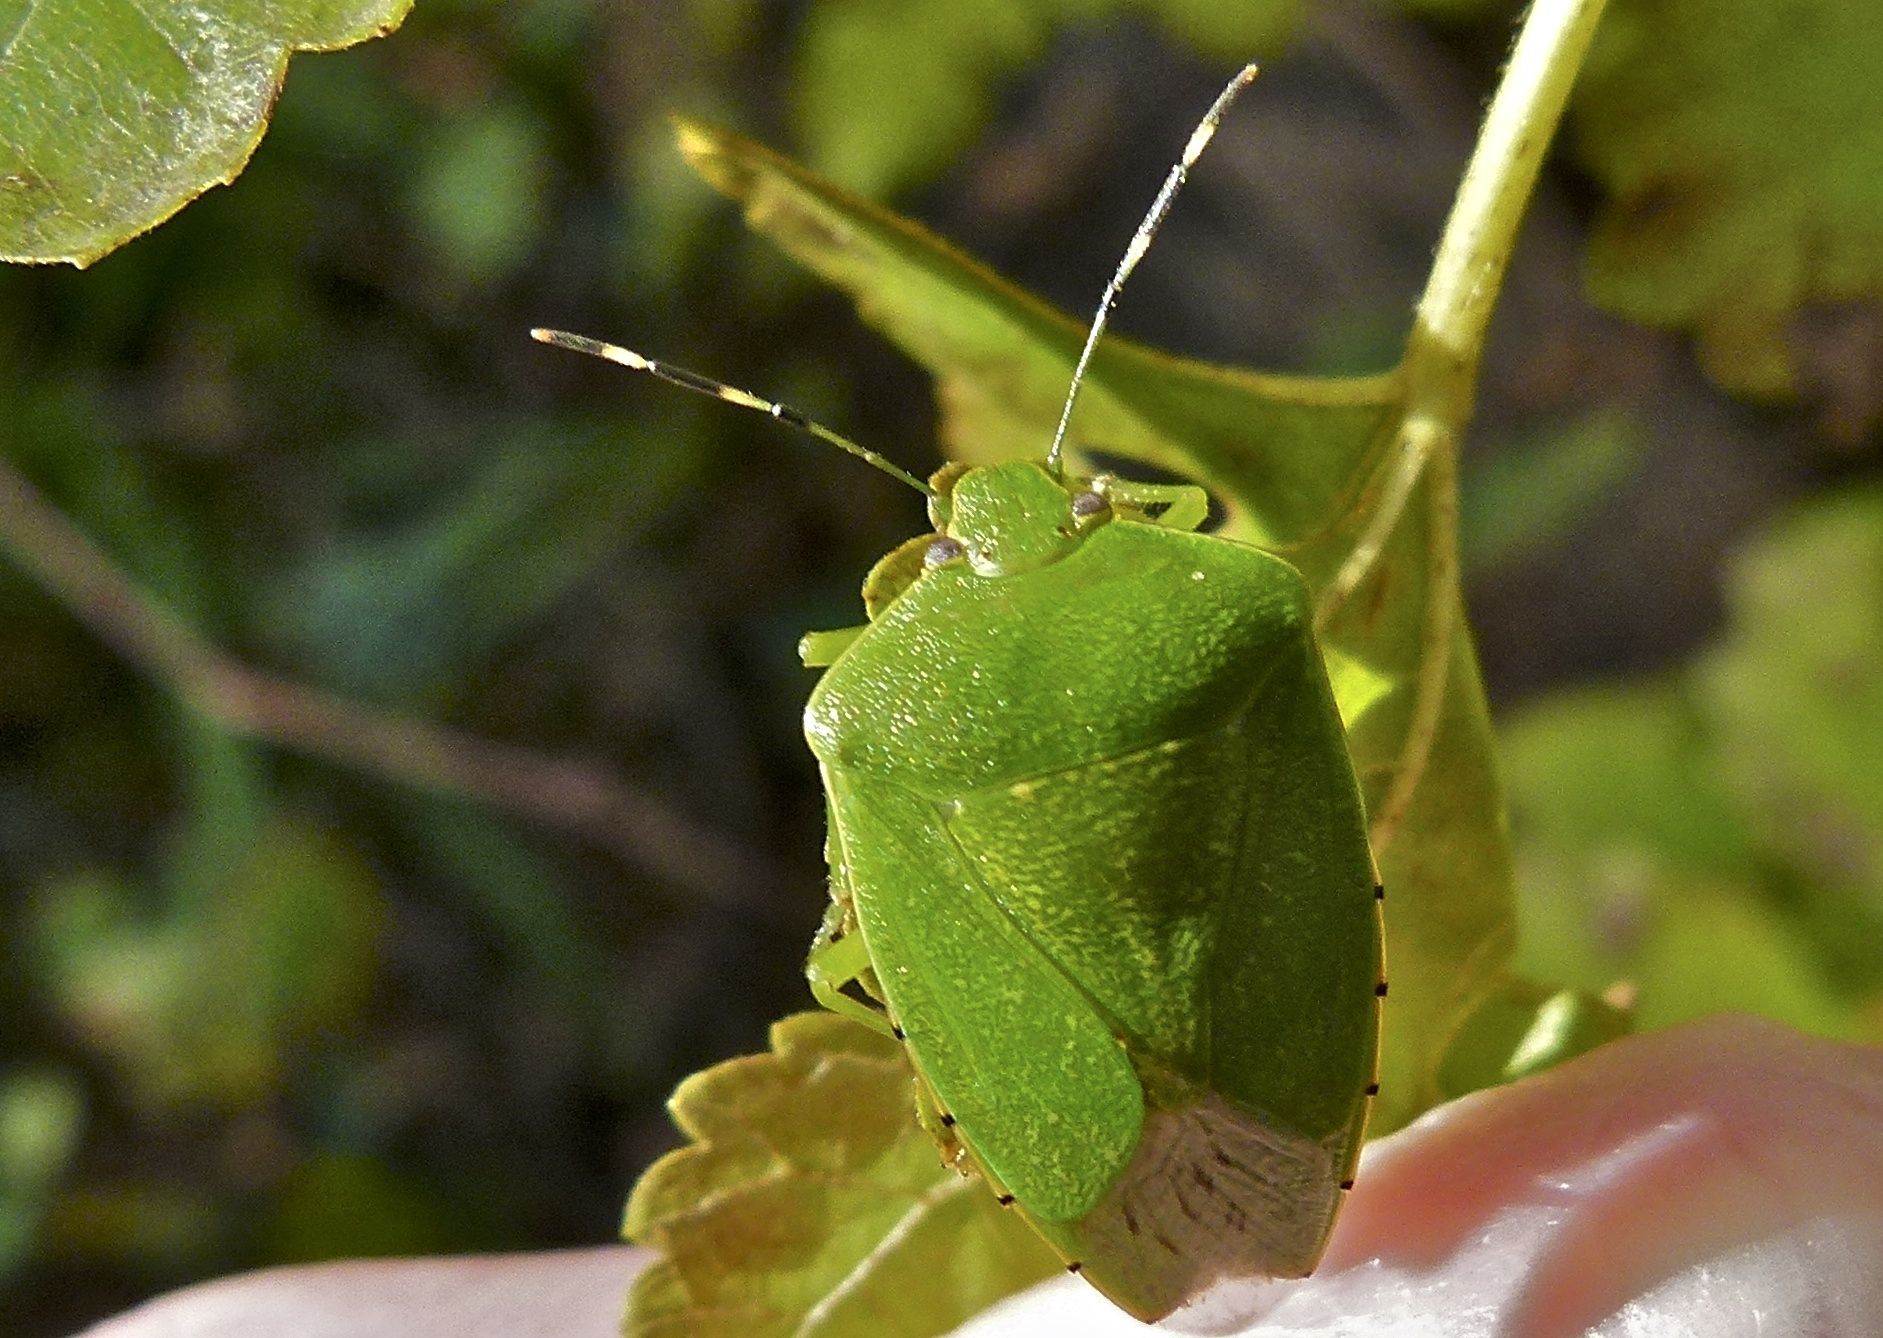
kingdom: Animalia
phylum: Arthropoda
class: Insecta
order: Hemiptera
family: Pentatomidae
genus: Chinavia
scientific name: Chinavia hilaris
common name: Green stink bug
